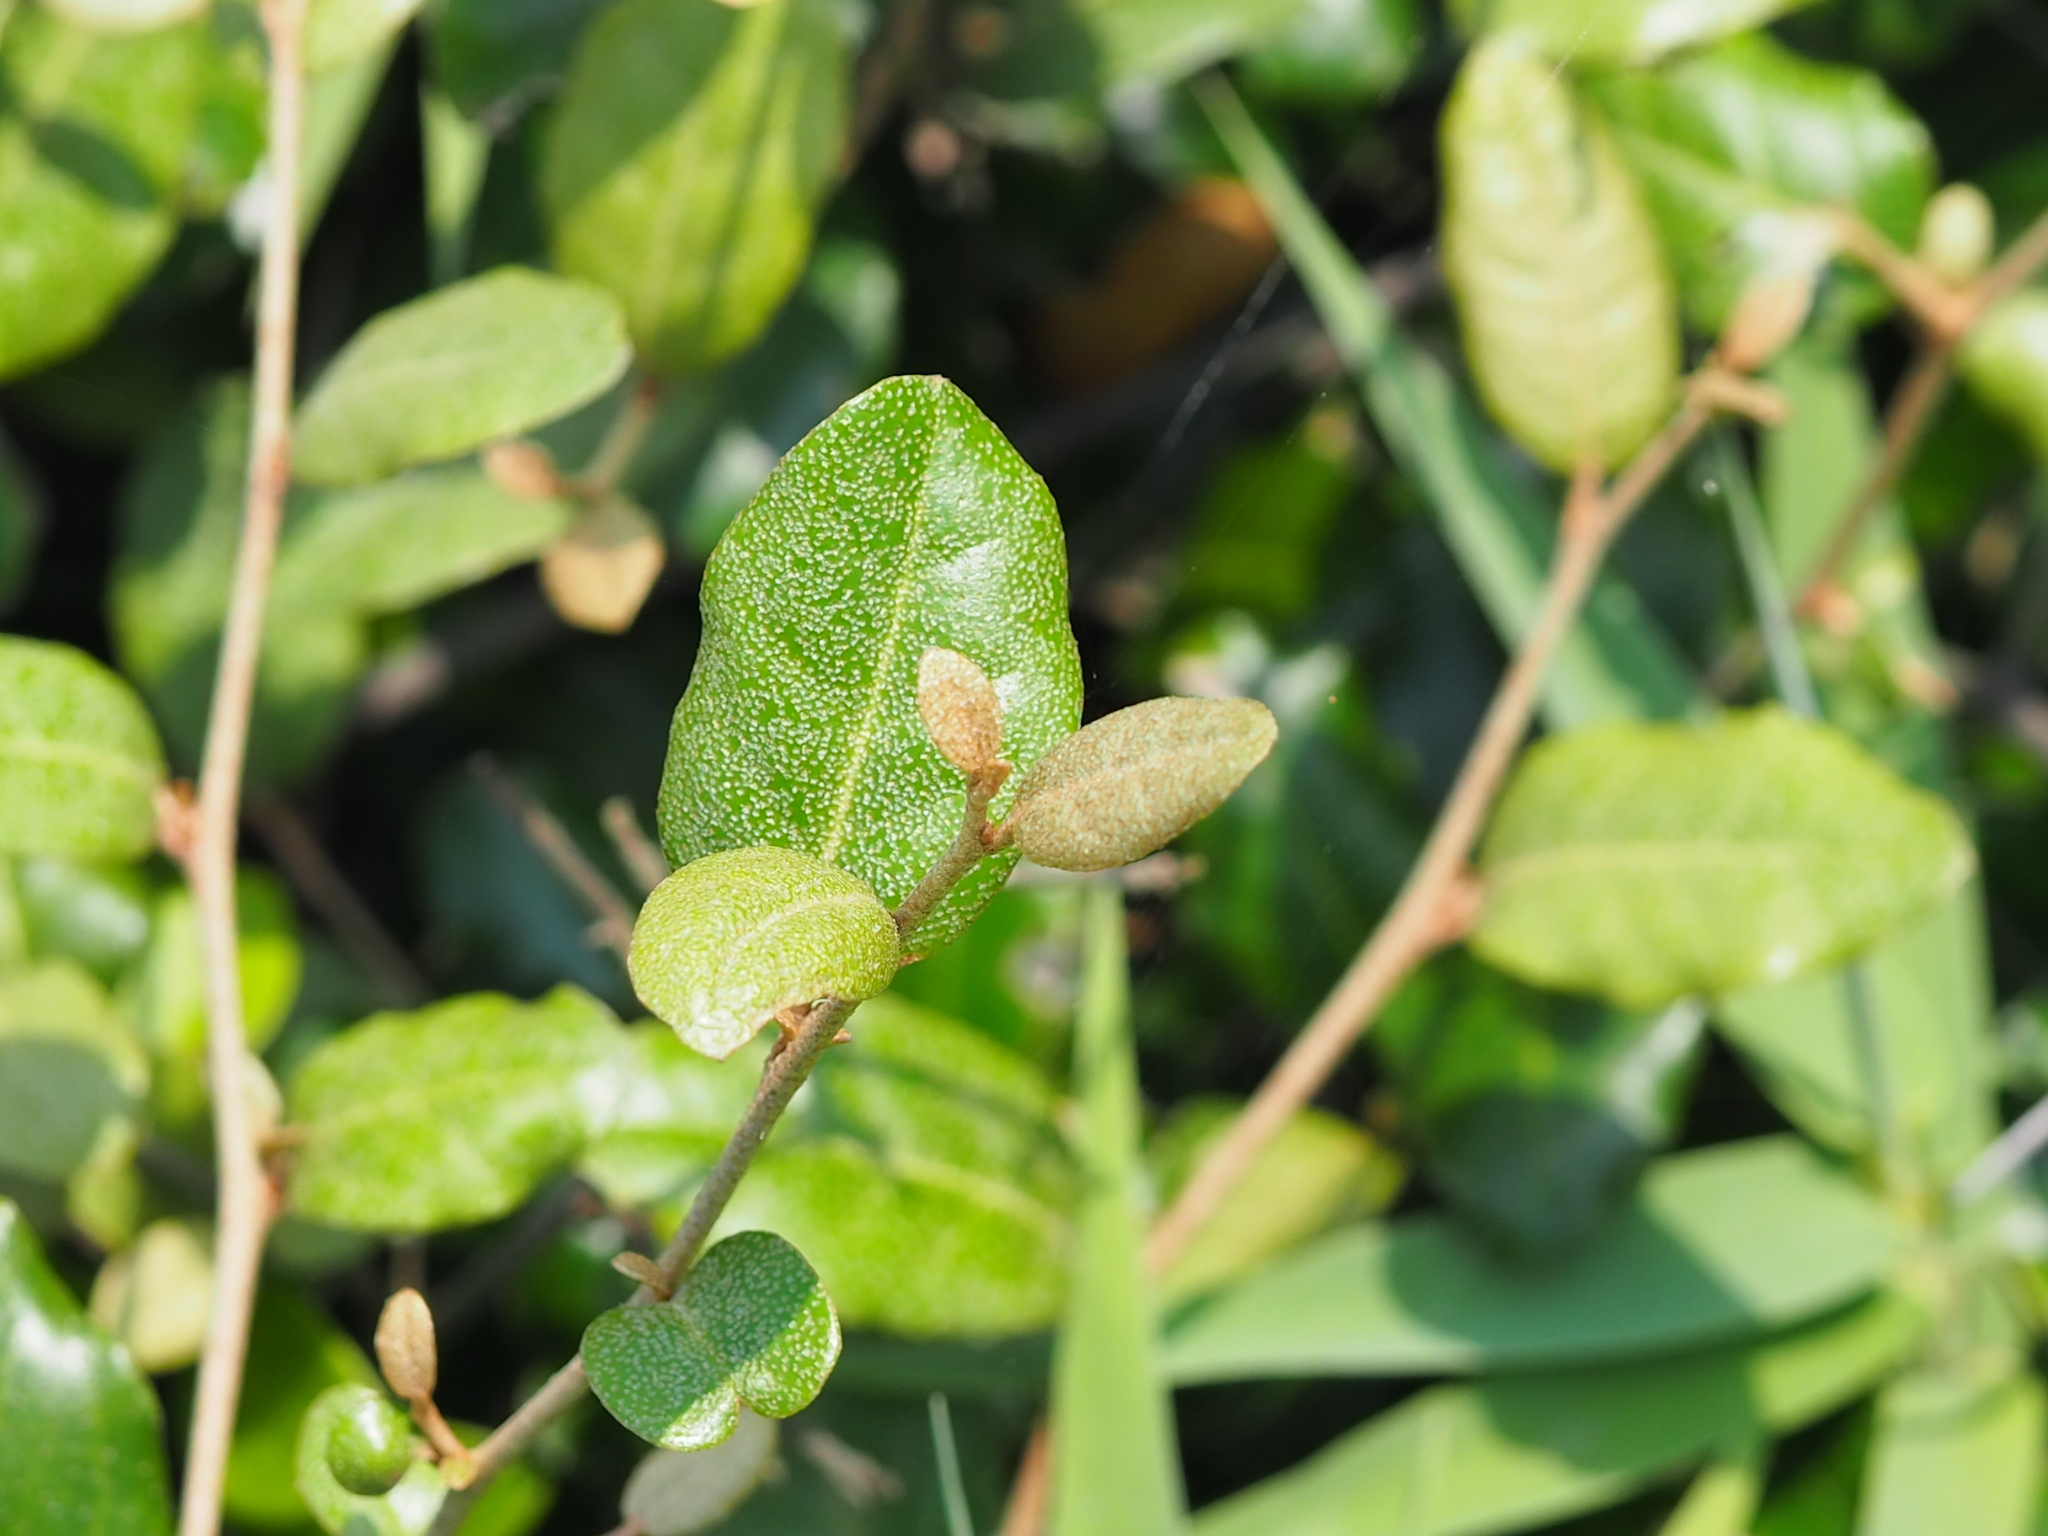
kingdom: Plantae
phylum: Tracheophyta
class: Magnoliopsida
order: Rosales
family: Elaeagnaceae
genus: Elaeagnus
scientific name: Elaeagnus formosana
